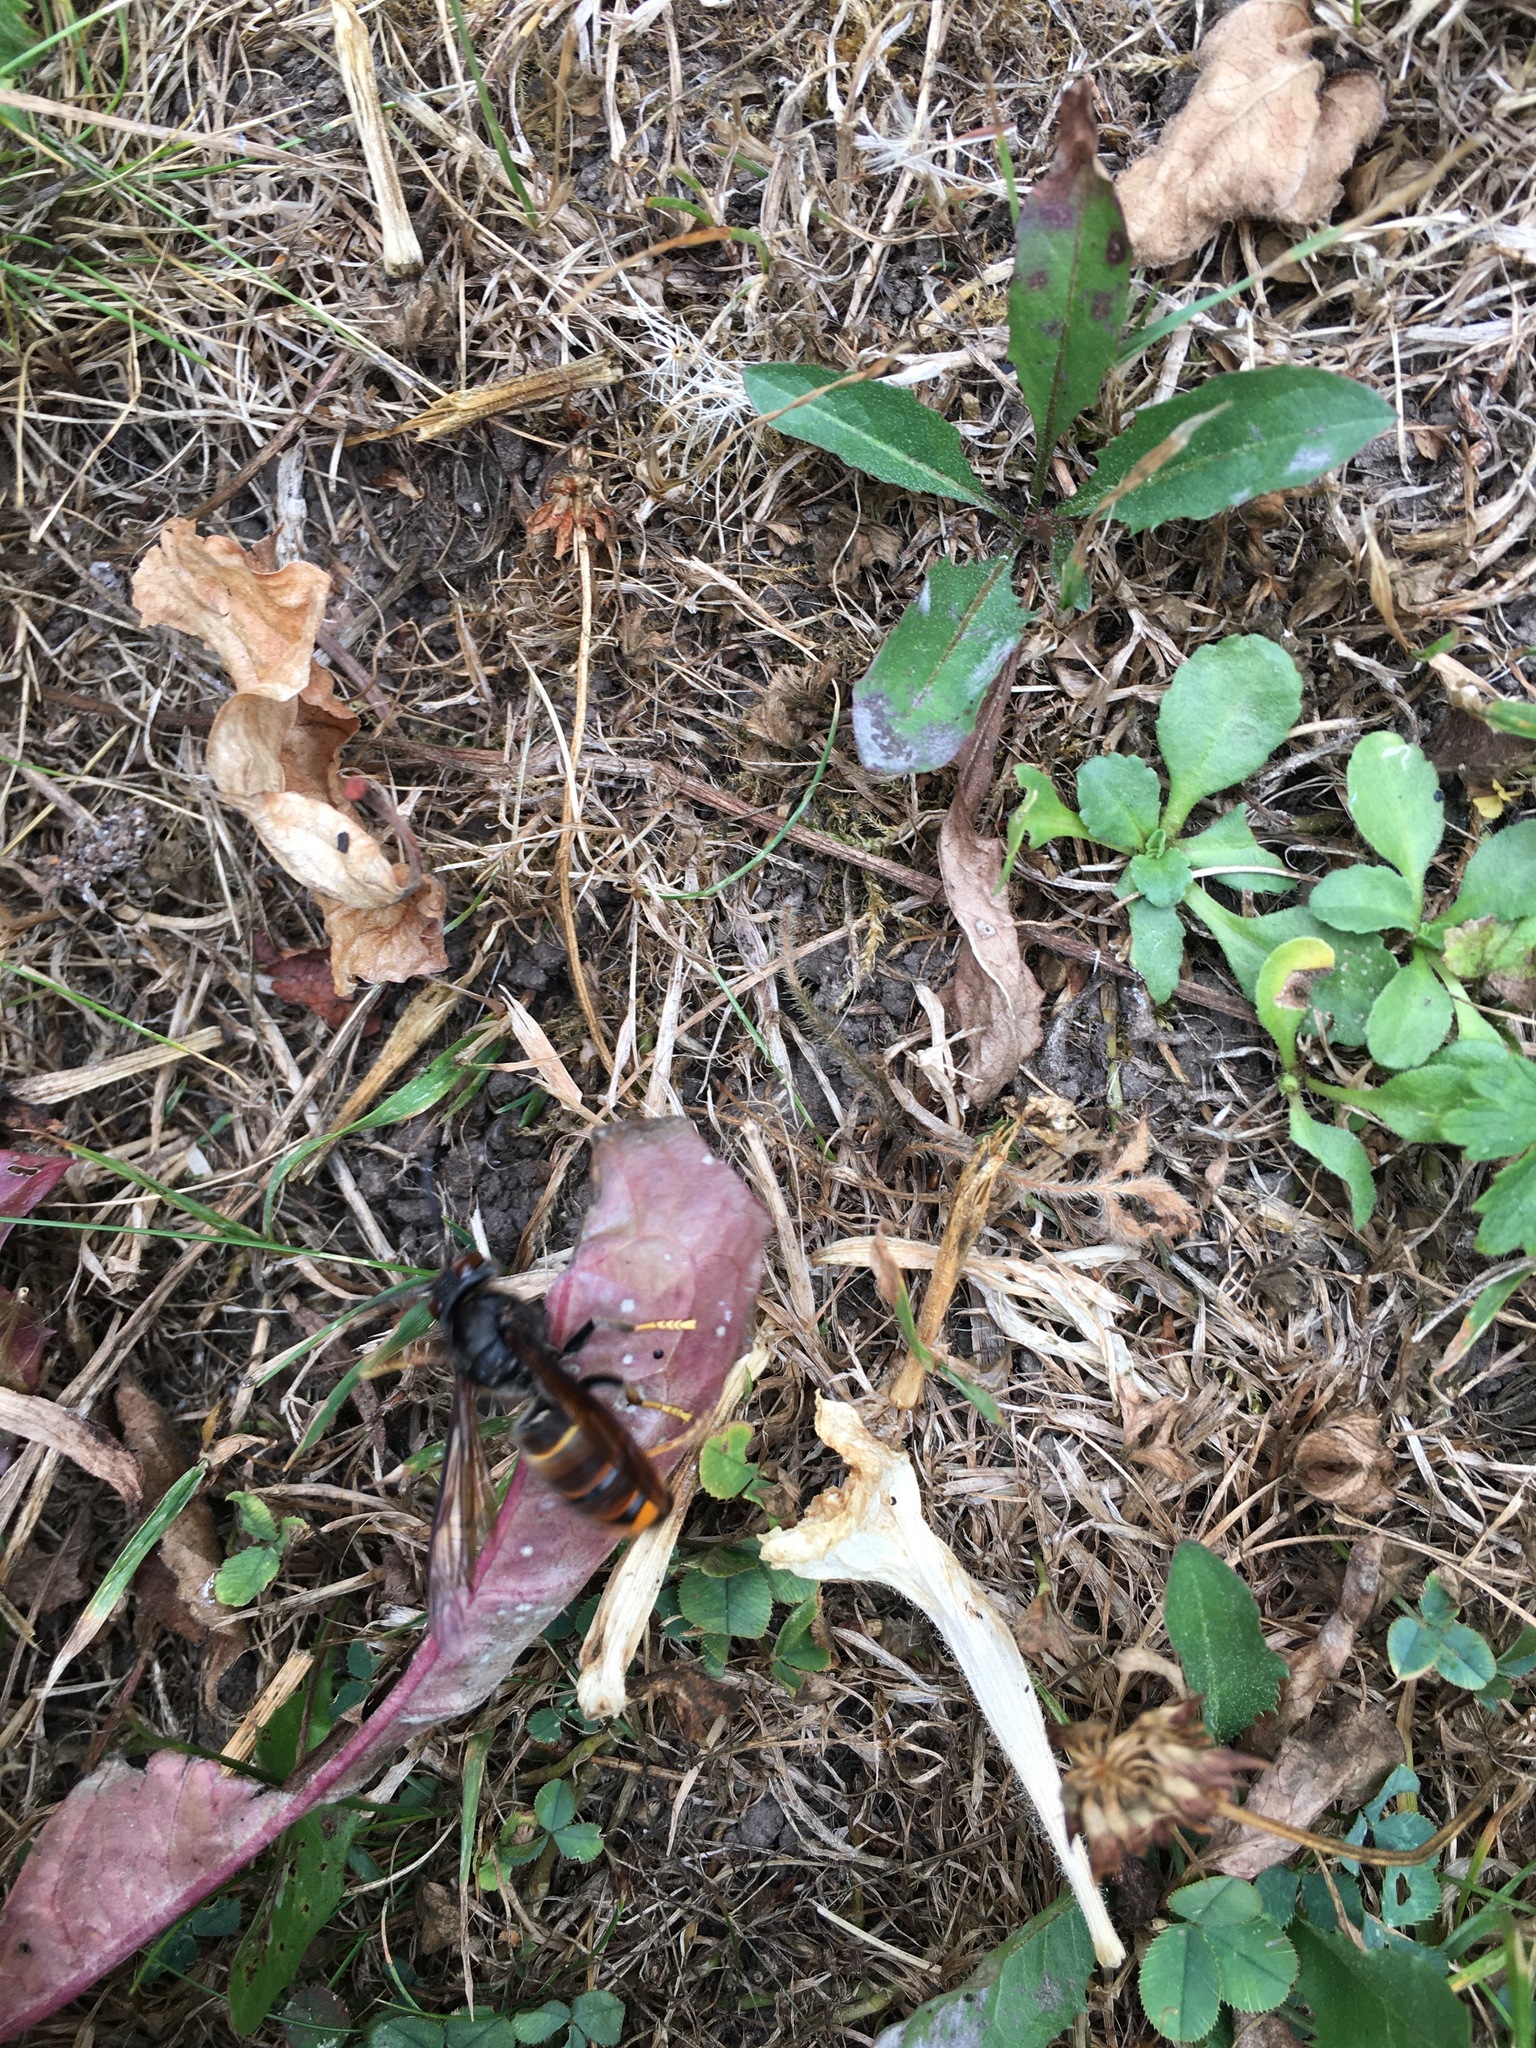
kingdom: Animalia
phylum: Arthropoda
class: Insecta
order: Hymenoptera
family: Vespidae
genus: Vespa
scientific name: Vespa velutina
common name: Asian hornet
